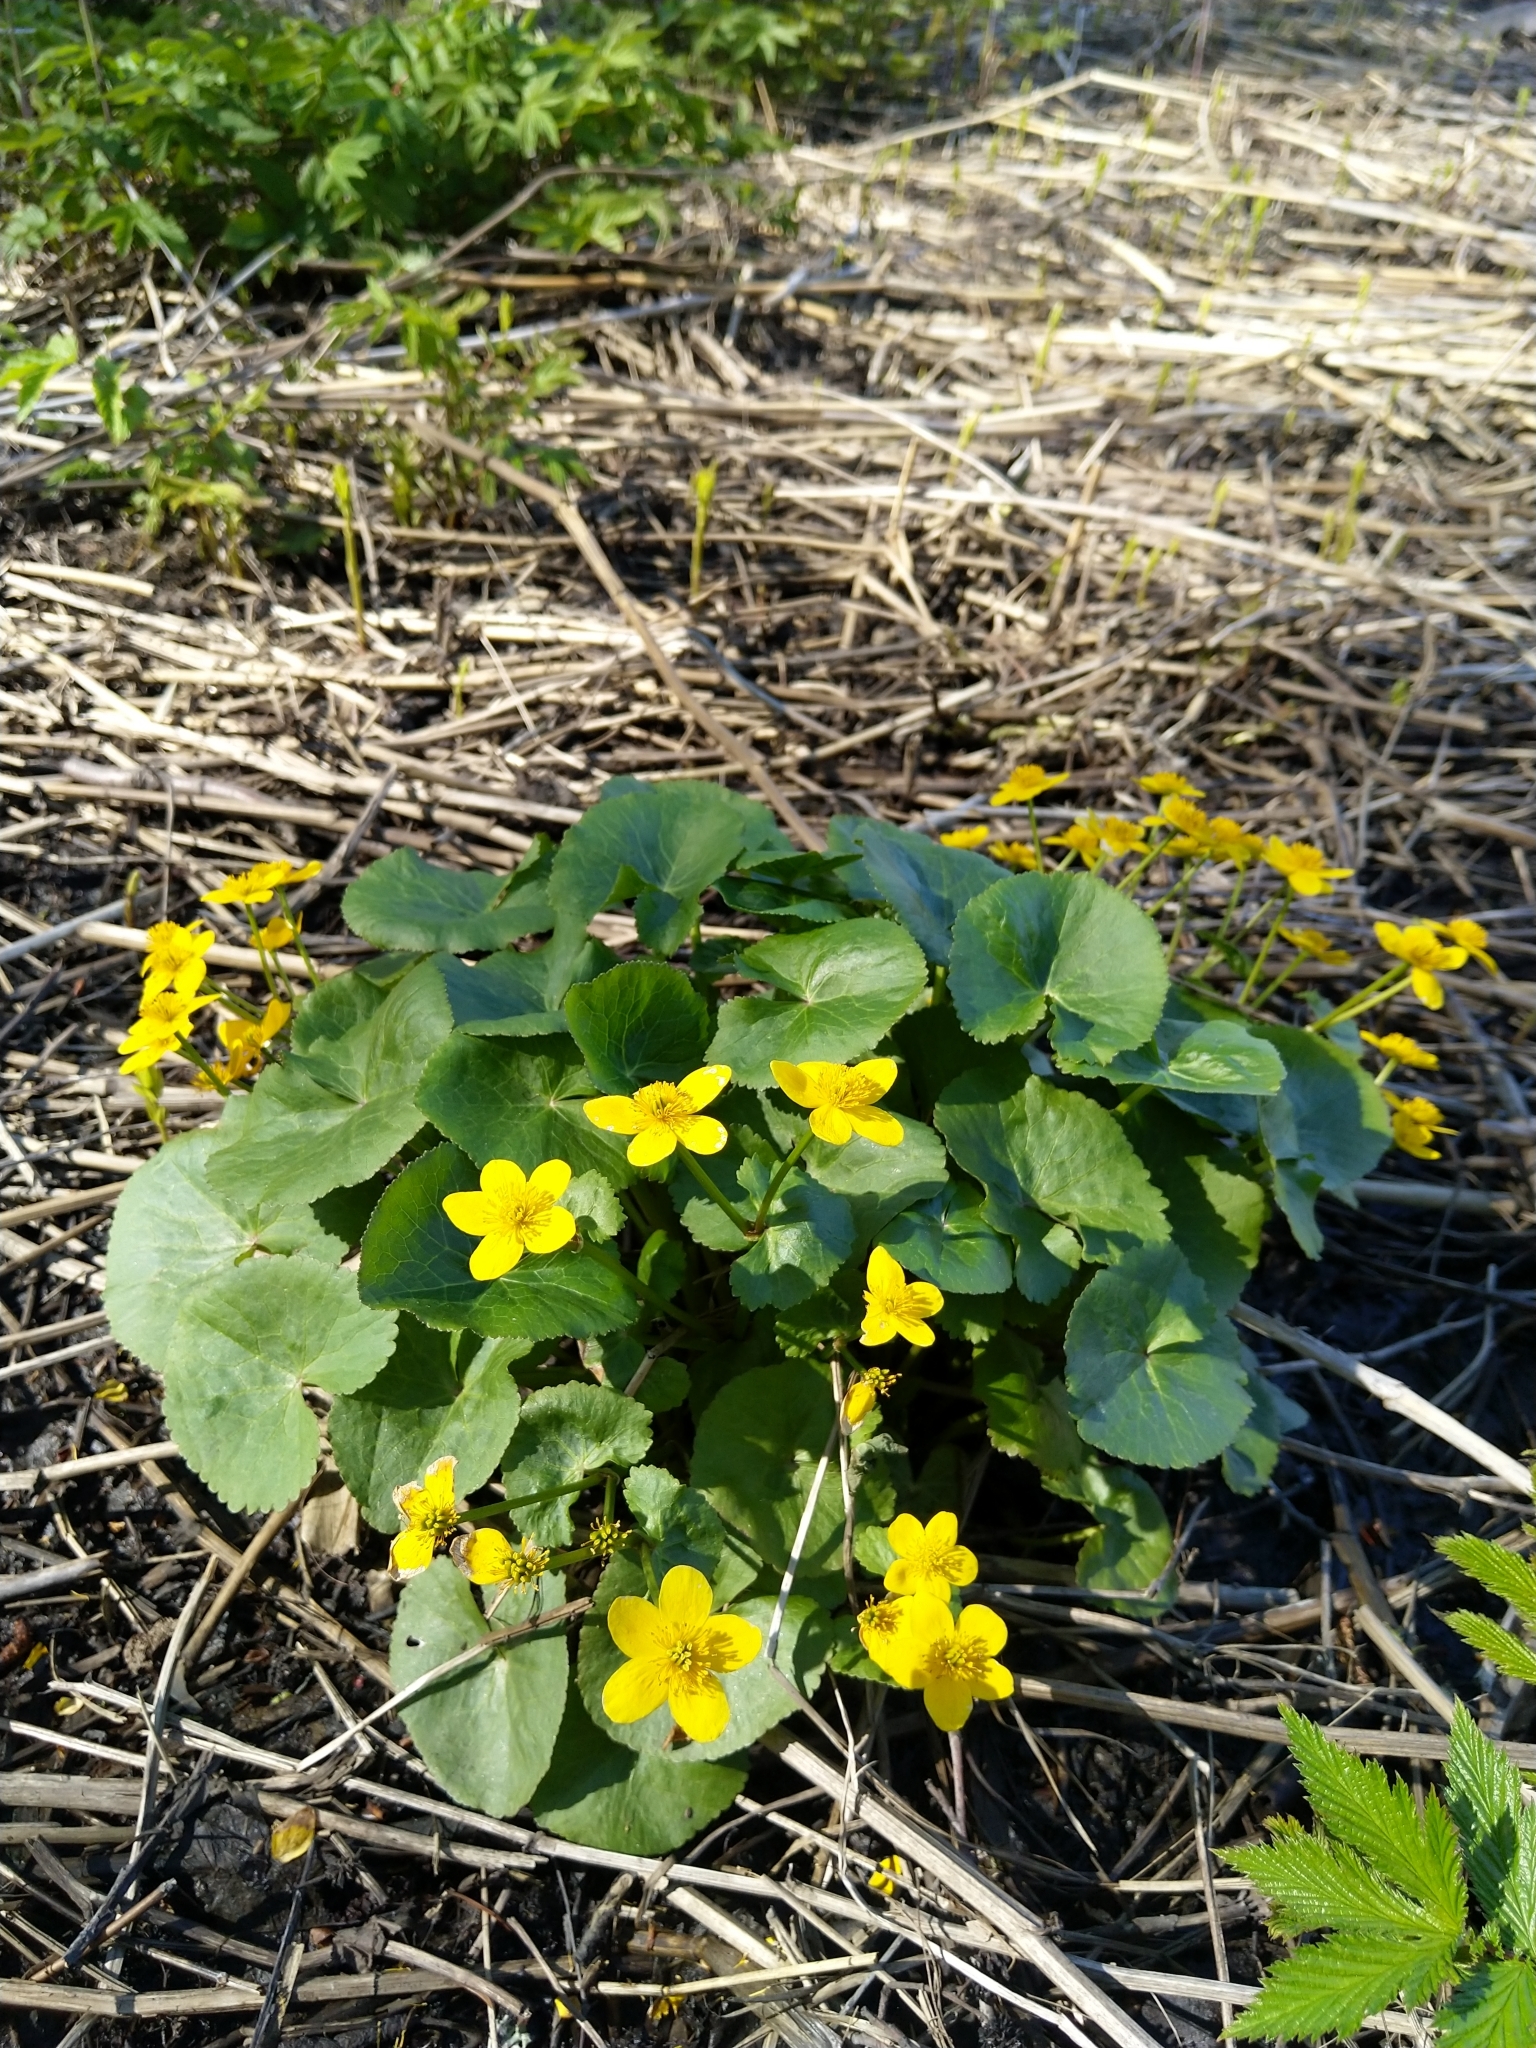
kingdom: Plantae
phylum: Tracheophyta
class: Magnoliopsida
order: Ranunculales
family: Ranunculaceae
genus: Caltha
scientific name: Caltha palustris
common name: Marsh marigold
